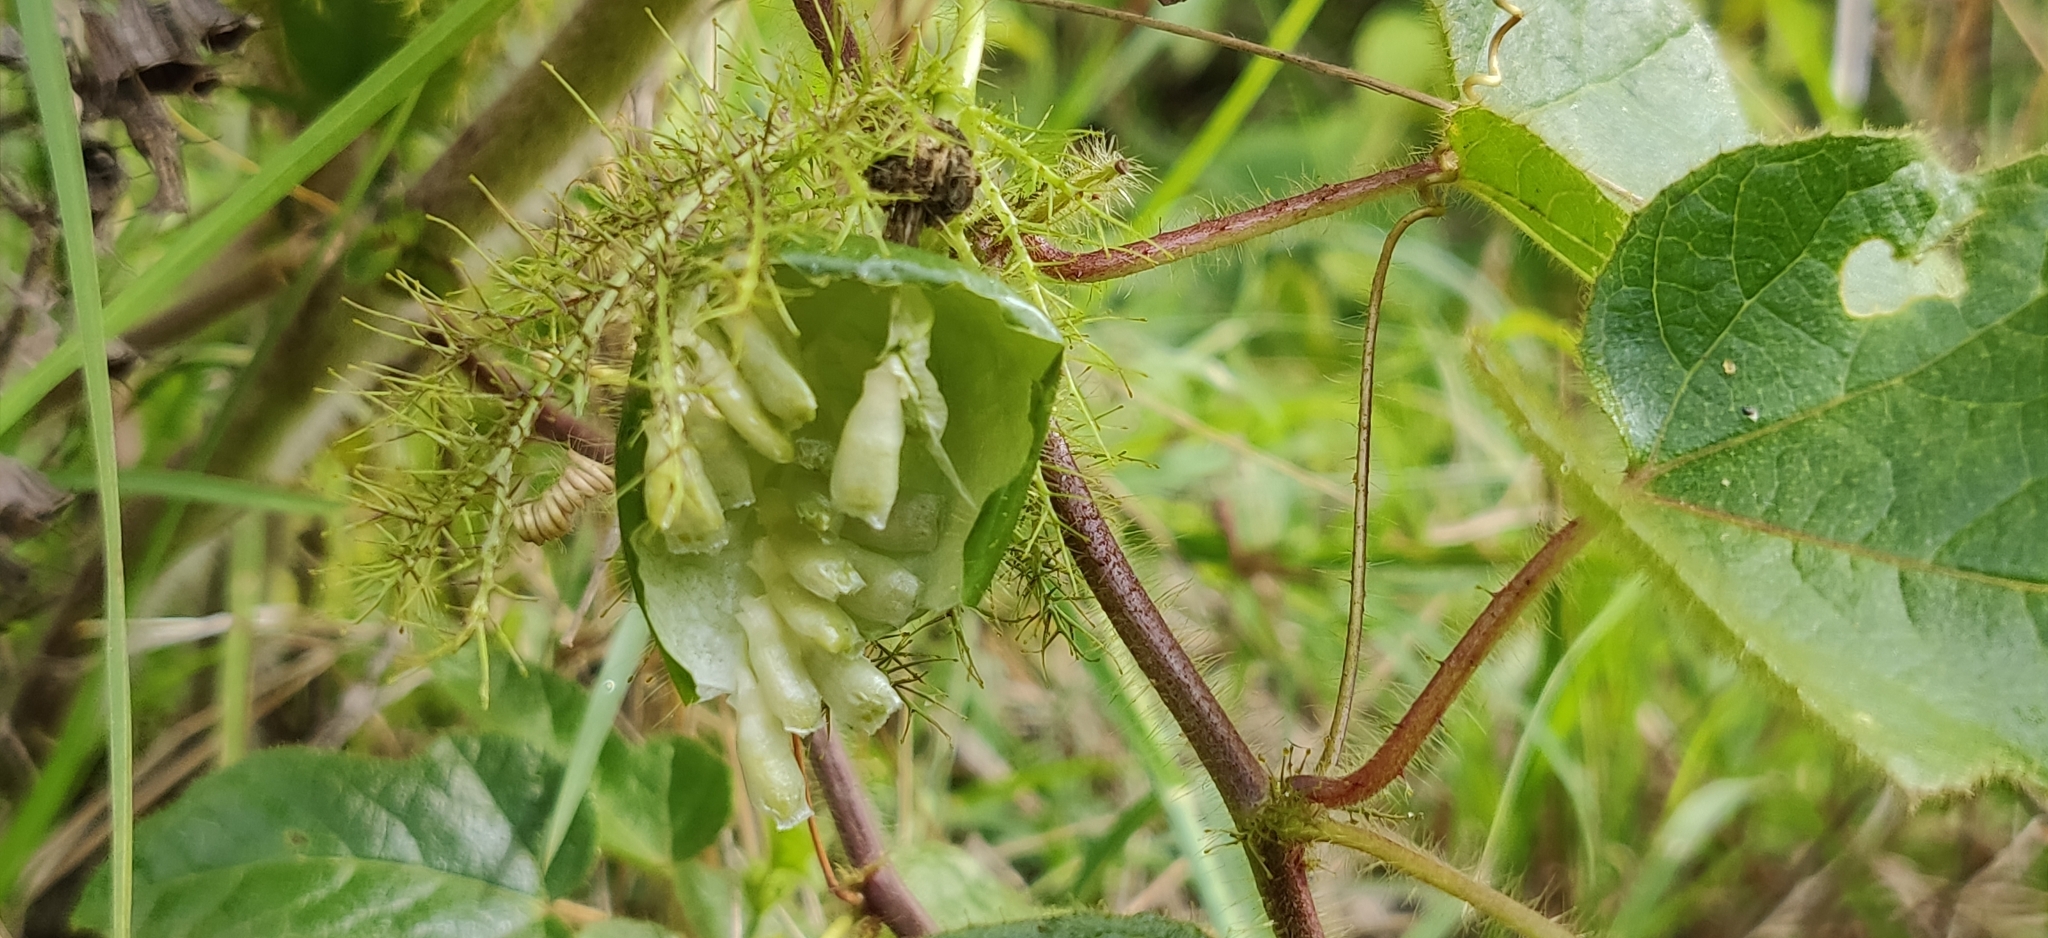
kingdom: Plantae
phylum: Tracheophyta
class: Magnoliopsida
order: Malpighiales
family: Passifloraceae
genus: Passiflora
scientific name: Passiflora foetida
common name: Fetid passionflower
